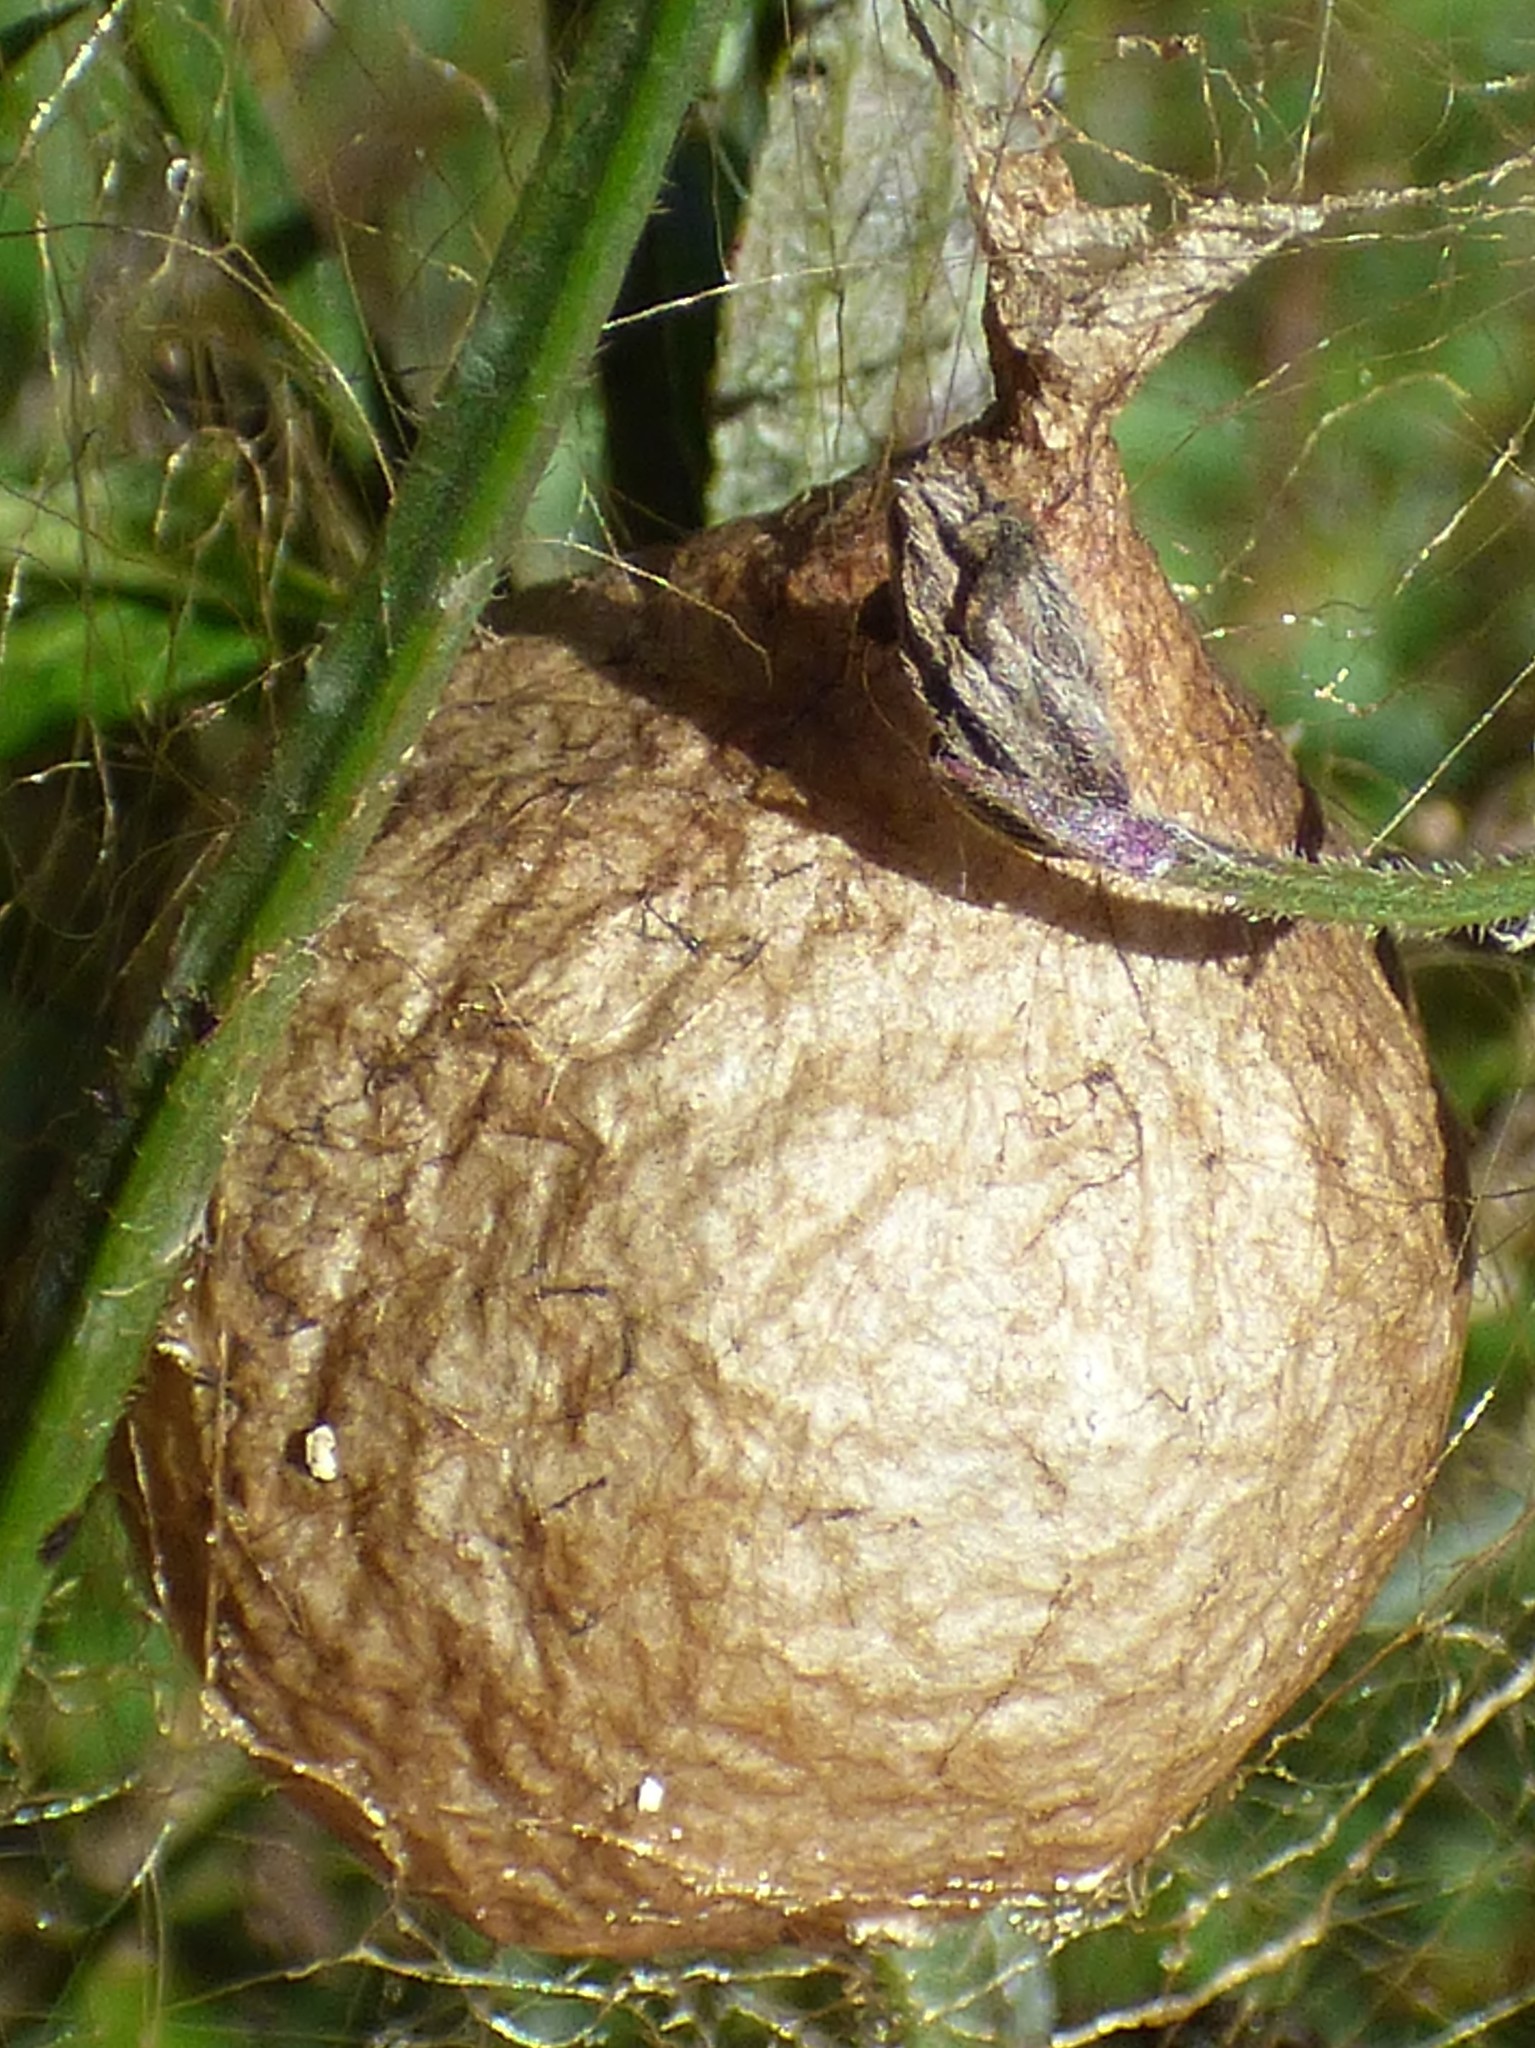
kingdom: Animalia
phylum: Arthropoda
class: Arachnida
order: Araneae
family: Araneidae
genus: Argiope
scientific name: Argiope aurantia
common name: Orb weavers
